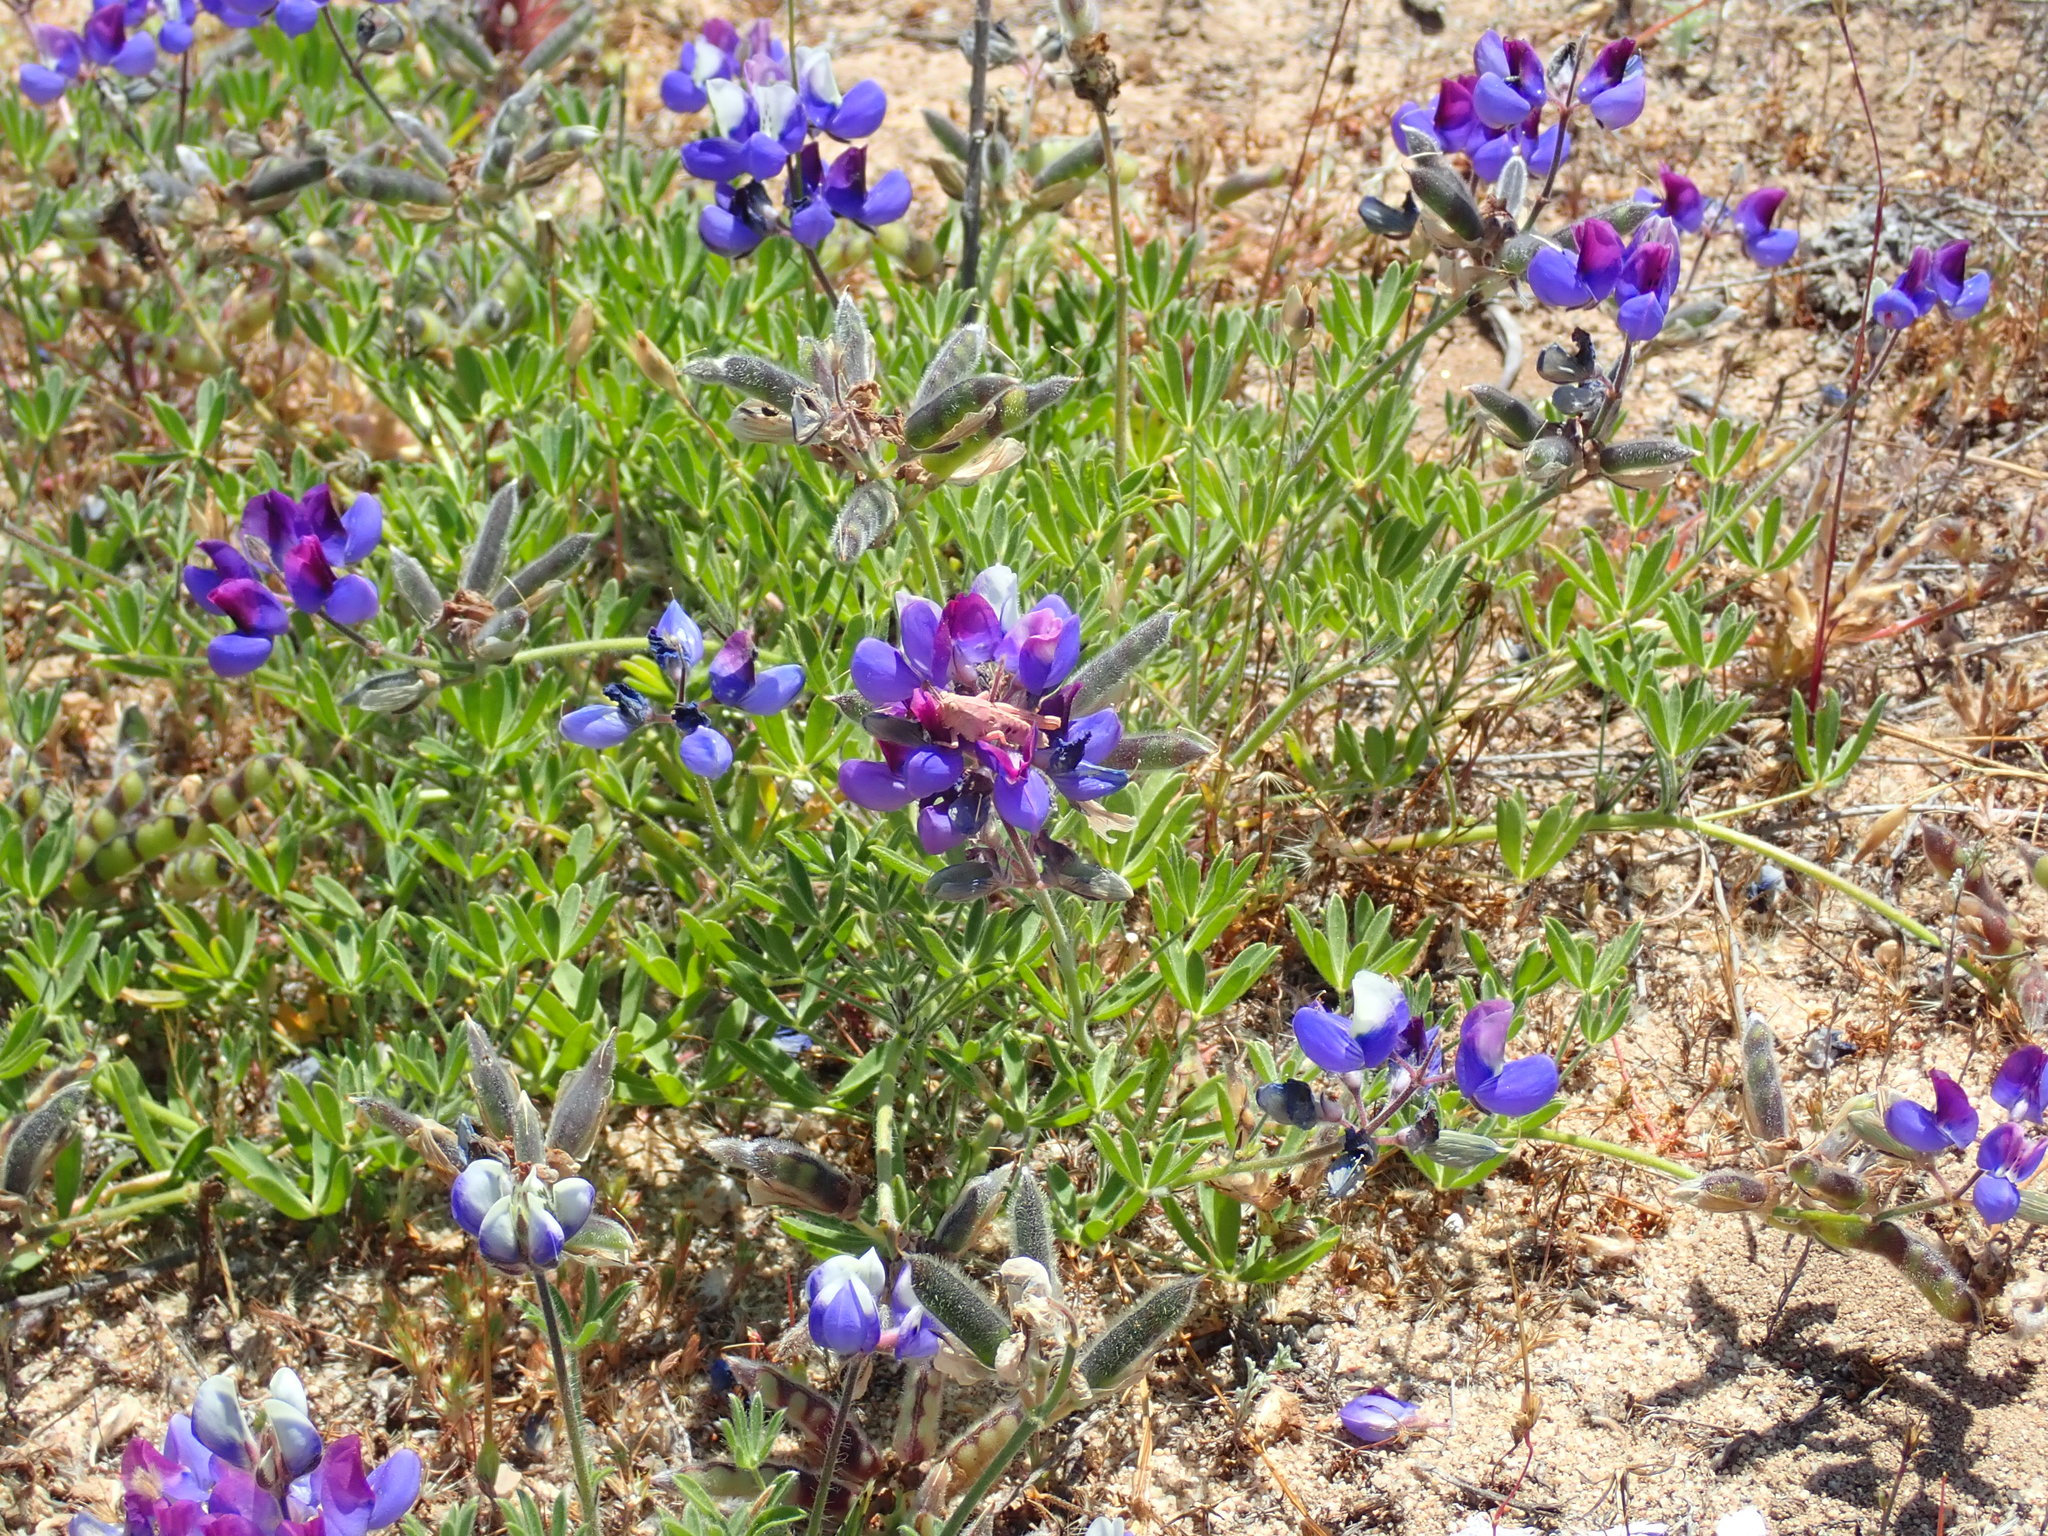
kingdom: Animalia
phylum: Arthropoda
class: Insecta
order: Orthoptera
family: Acrididae
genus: Oedaleonotus
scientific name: Oedaleonotus phryneicus
